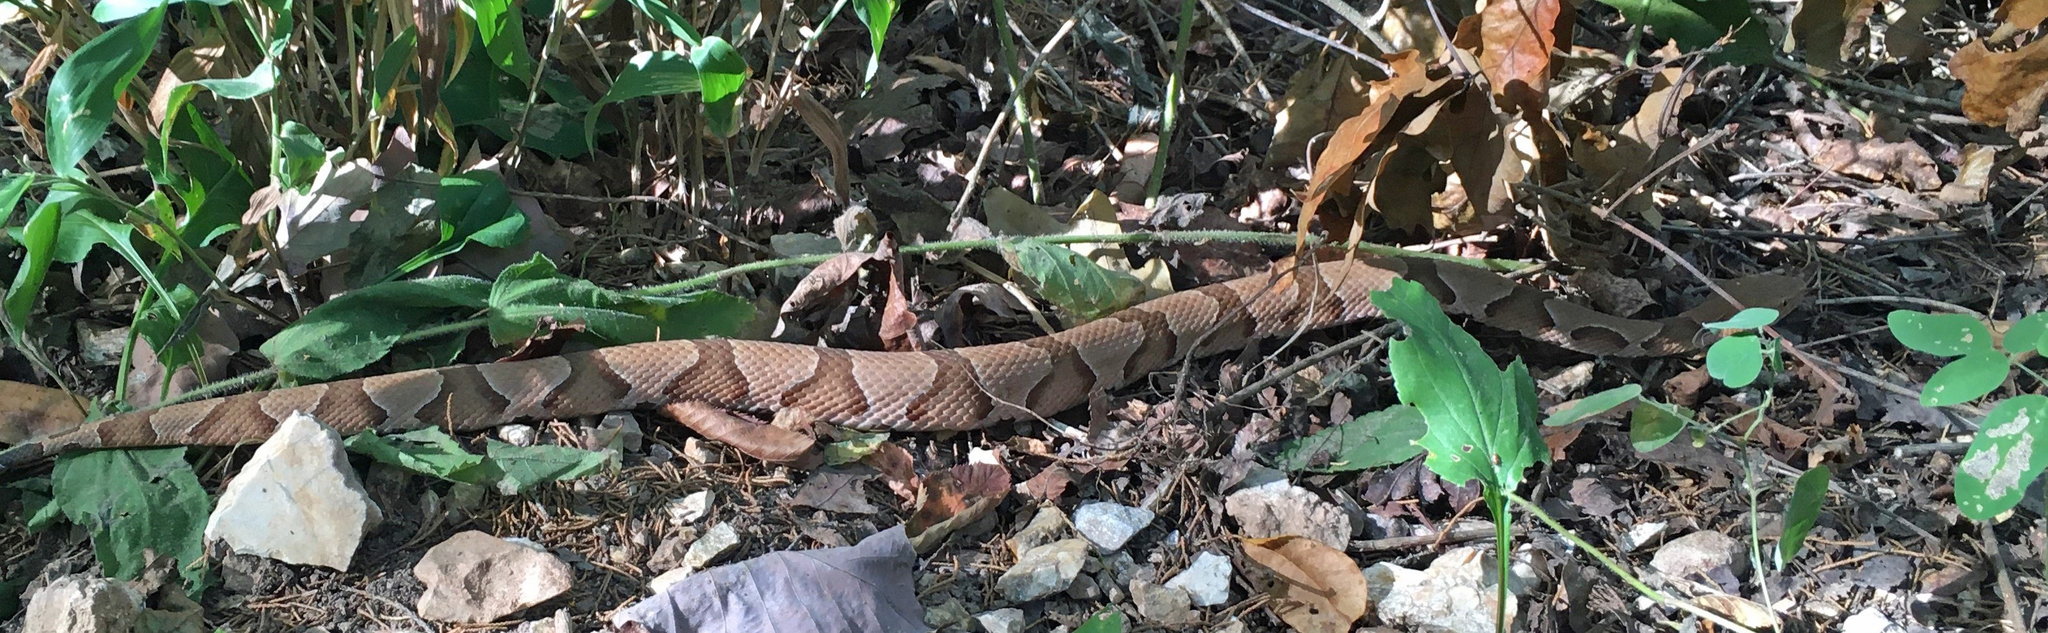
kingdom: Animalia
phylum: Chordata
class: Squamata
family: Viperidae
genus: Agkistrodon
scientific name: Agkistrodon contortrix
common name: Northern copperhead
